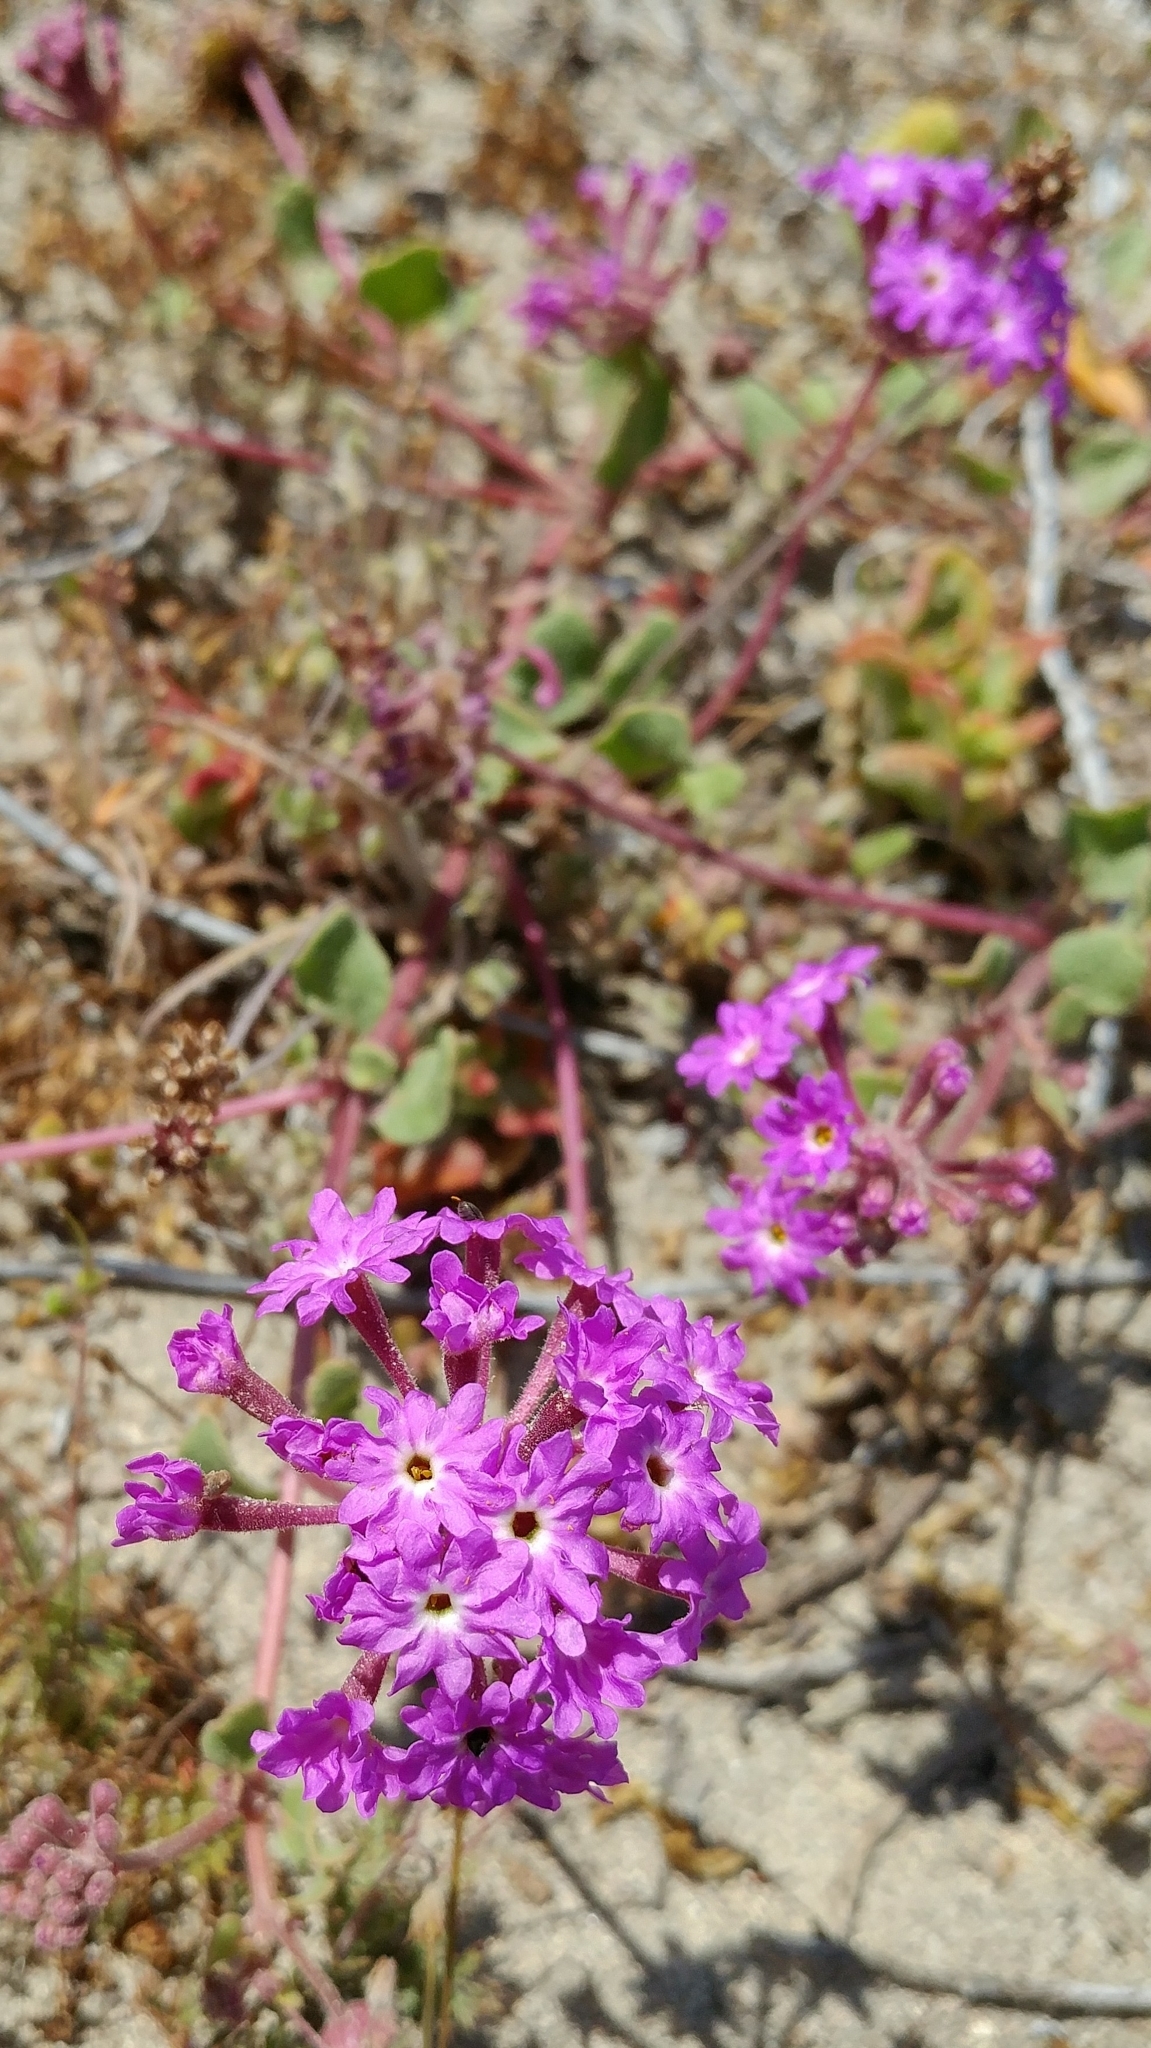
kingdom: Plantae
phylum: Tracheophyta
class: Magnoliopsida
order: Caryophyllales
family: Nyctaginaceae
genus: Abronia
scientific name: Abronia umbellata
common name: Sand-verbena
